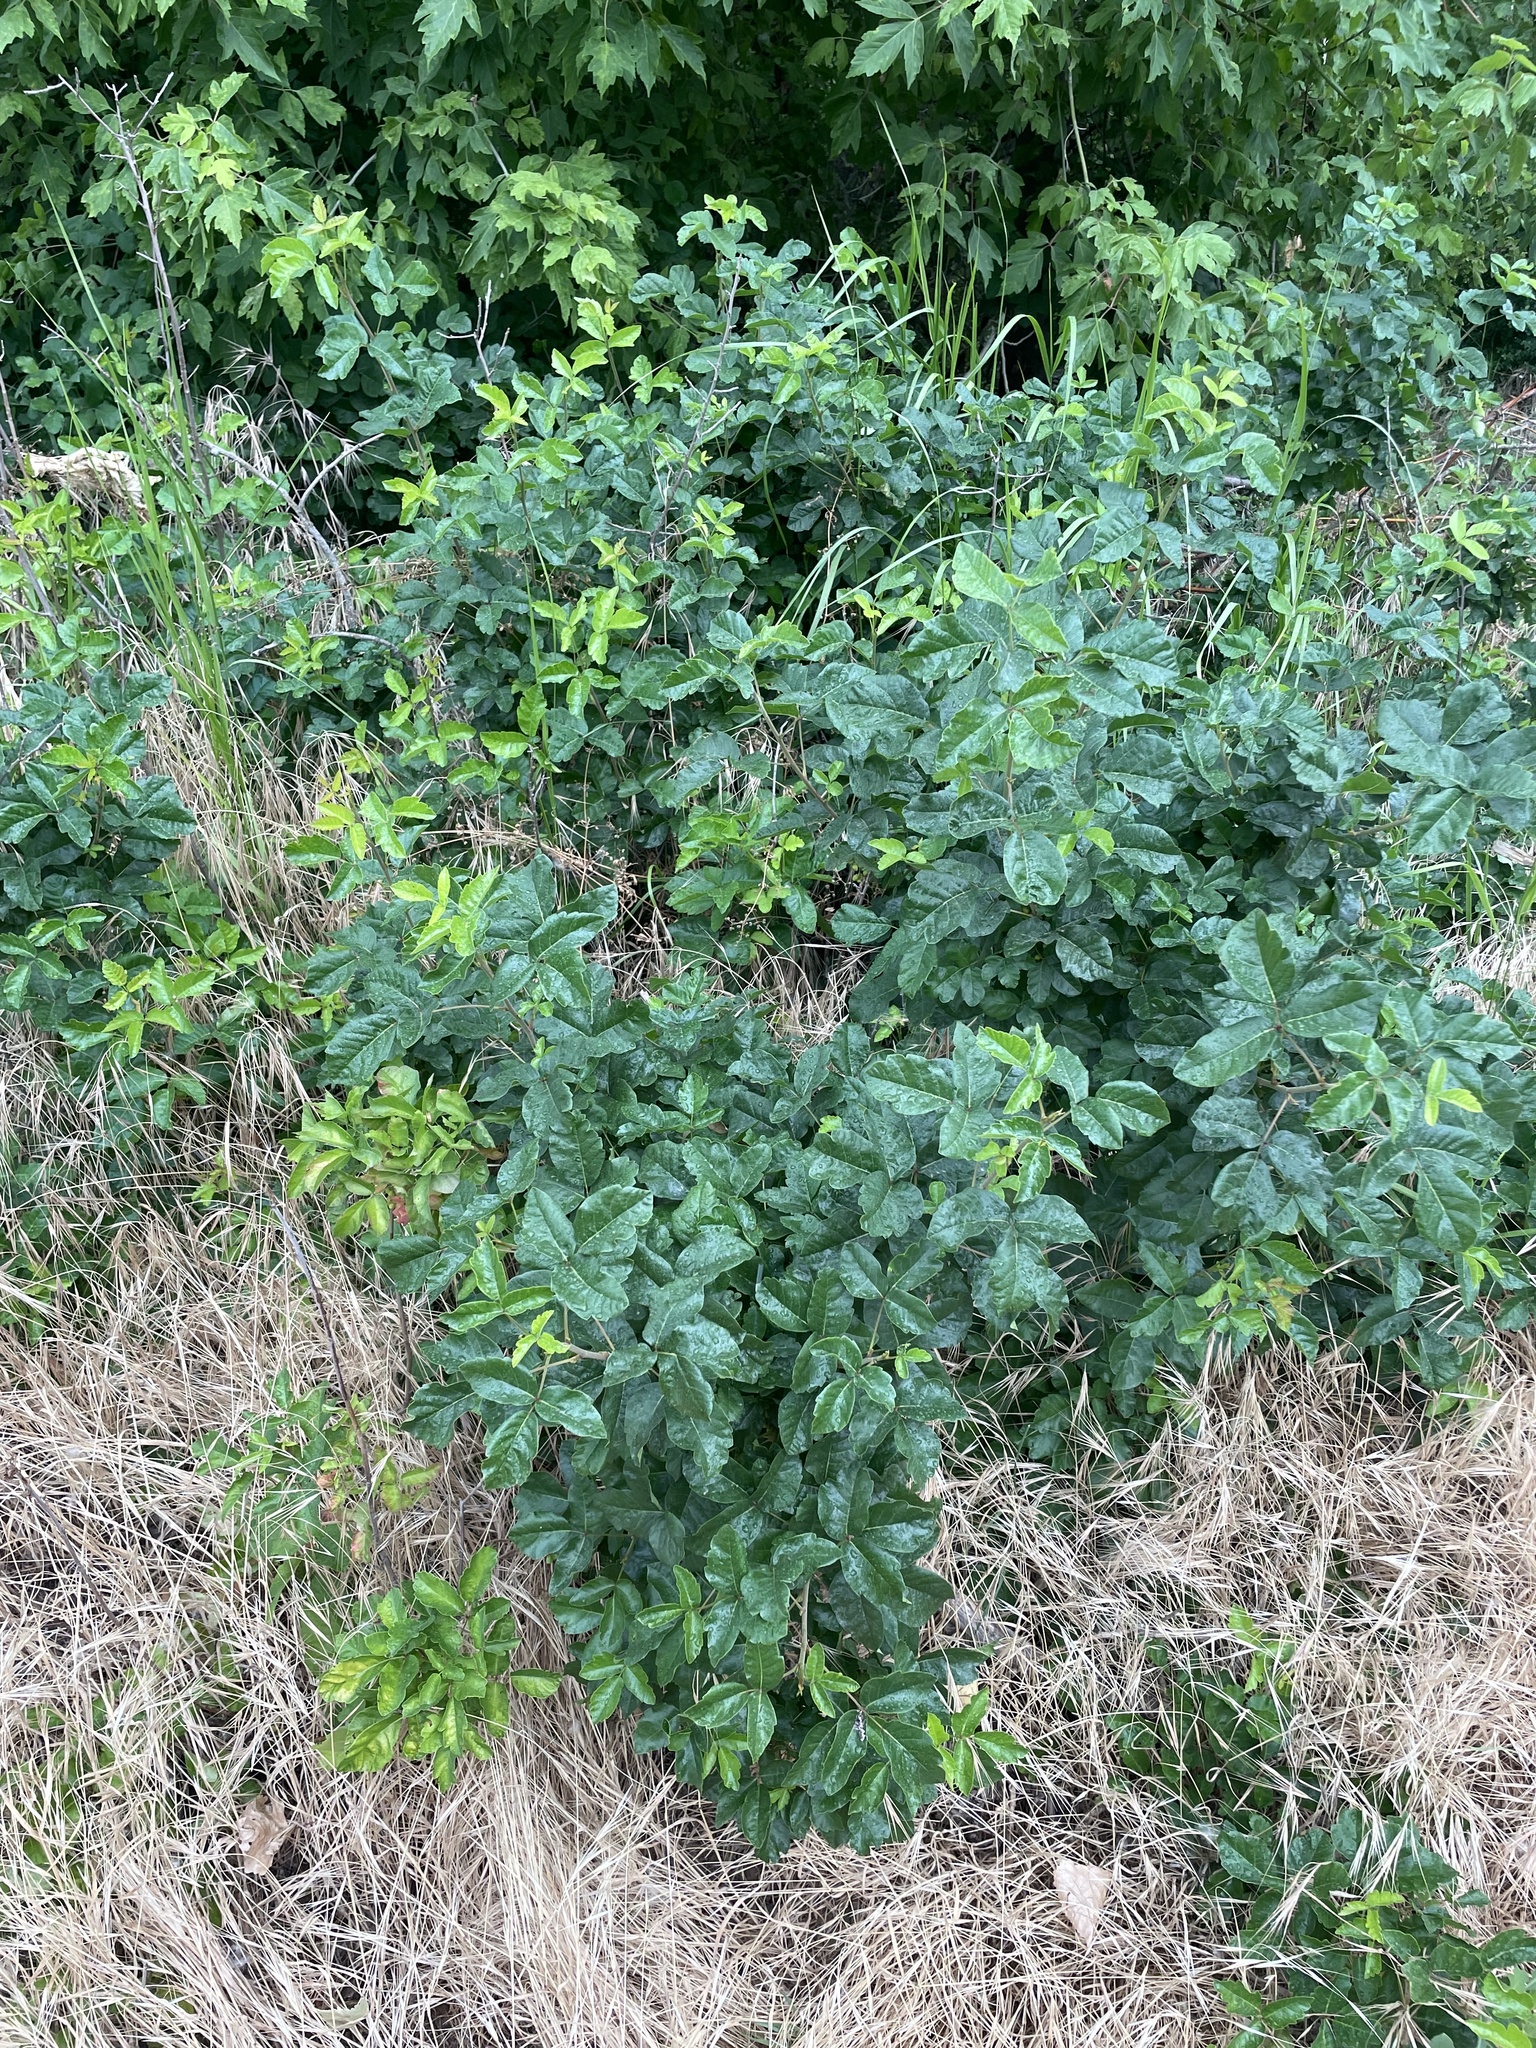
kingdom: Plantae
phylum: Tracheophyta
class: Magnoliopsida
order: Sapindales
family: Anacardiaceae
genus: Toxicodendron
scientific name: Toxicodendron diversilobum
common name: Pacific poison-oak
